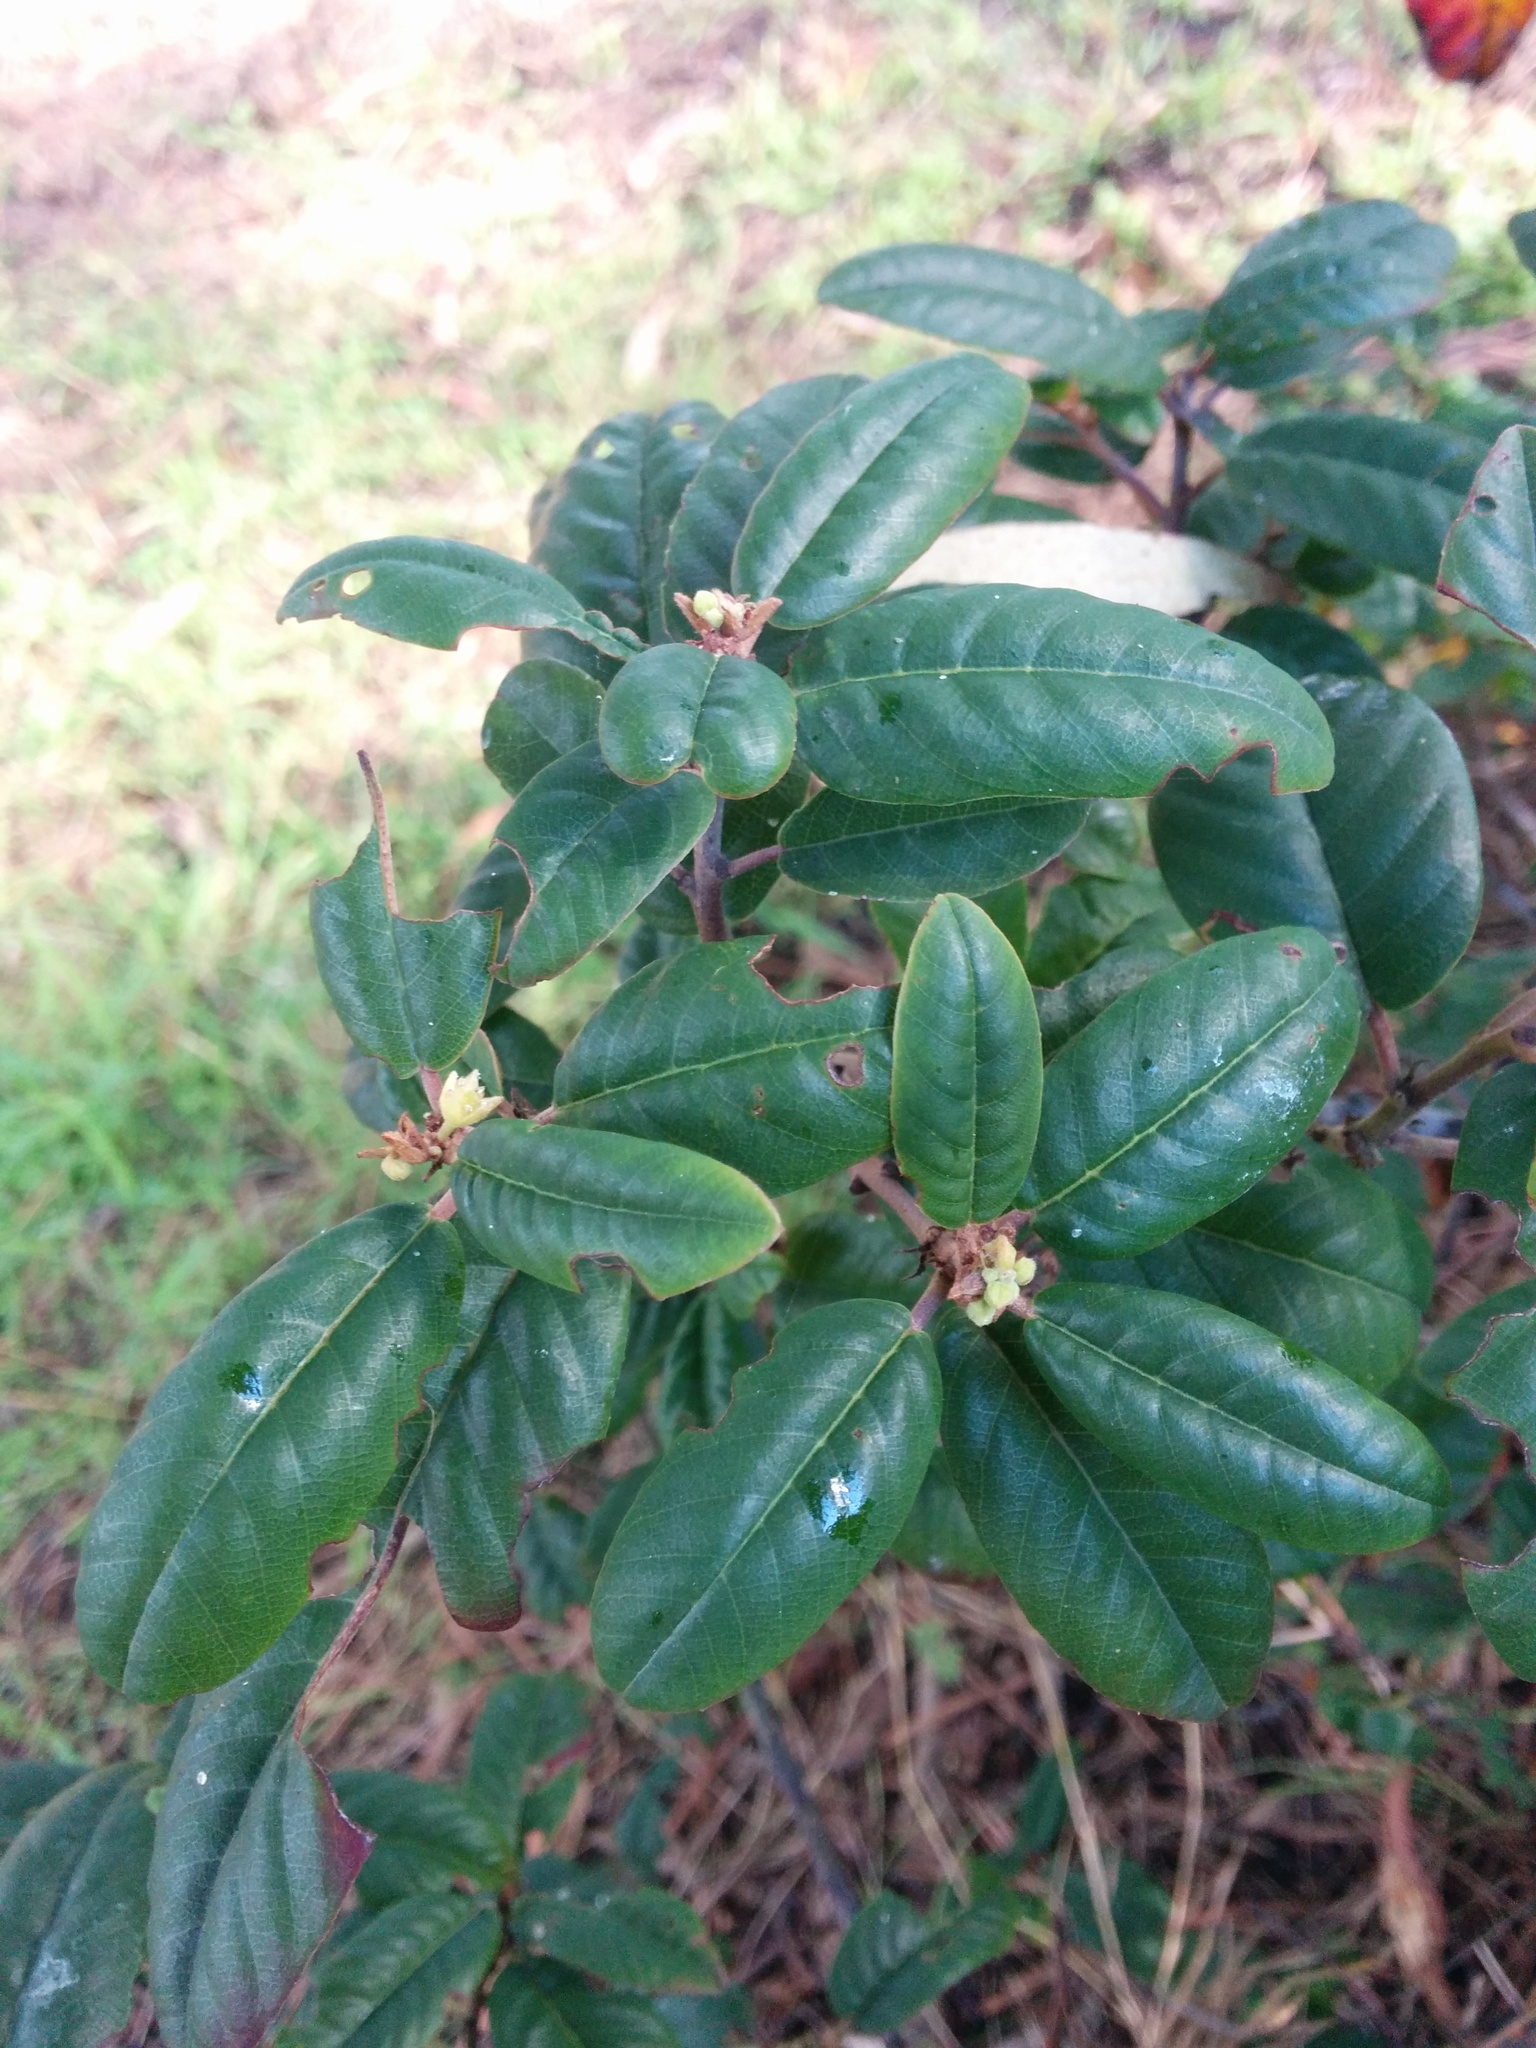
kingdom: Plantae
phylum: Tracheophyta
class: Magnoliopsida
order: Rosales
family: Rhamnaceae
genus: Frangula
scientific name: Frangula californica
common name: California buckthorn
